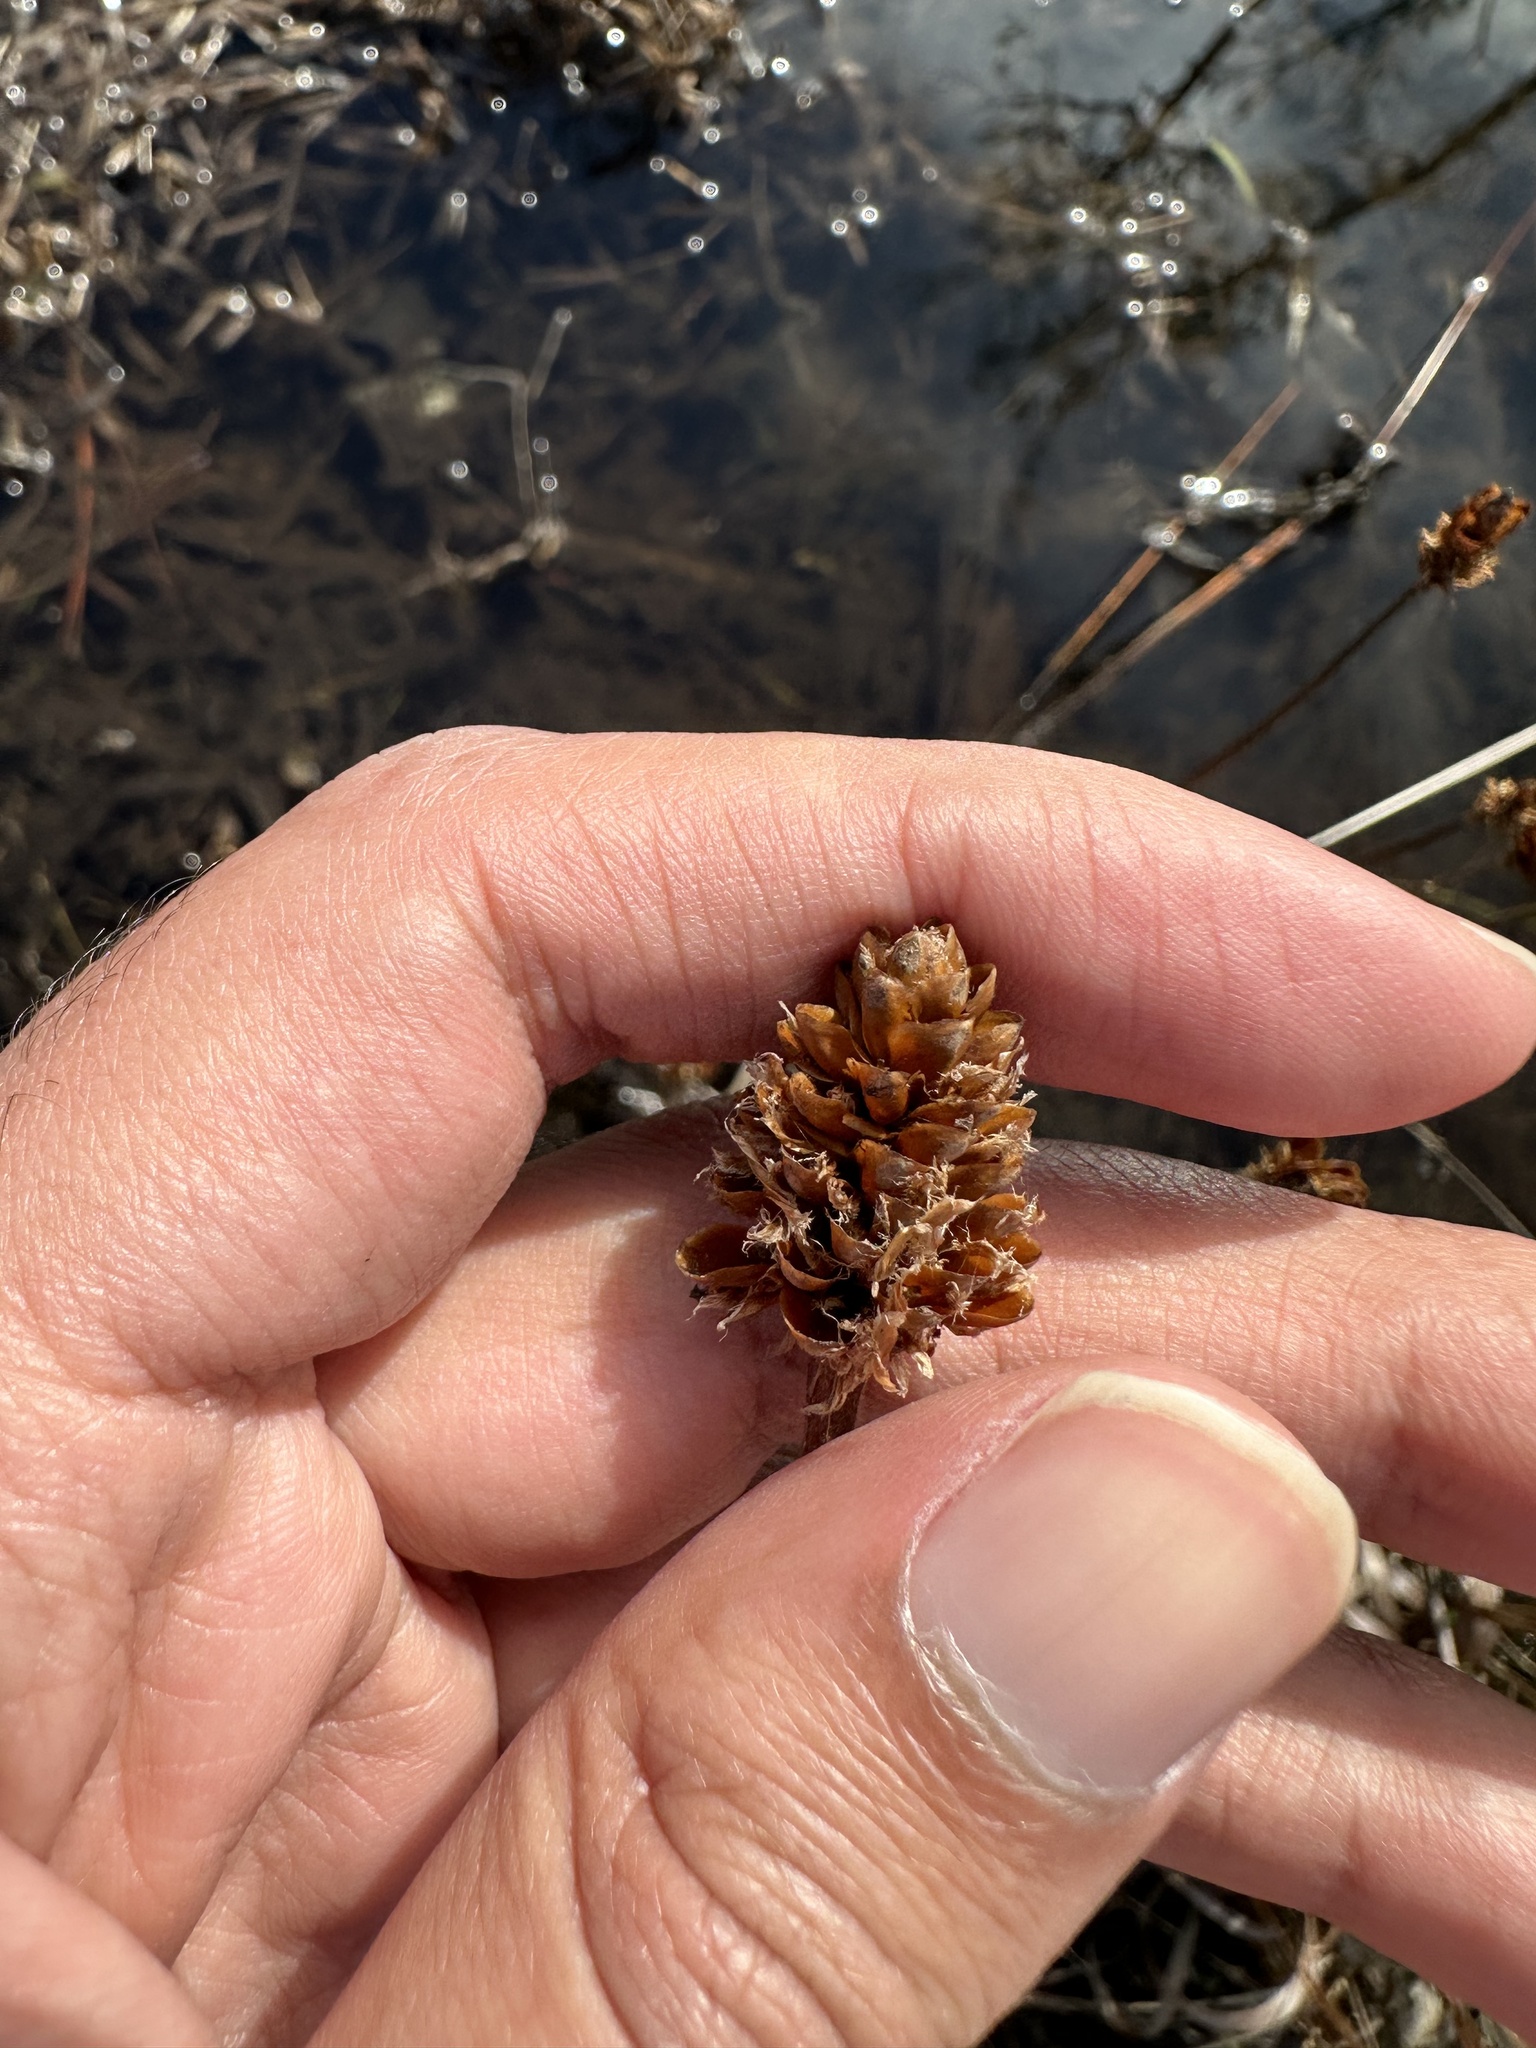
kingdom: Plantae
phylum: Tracheophyta
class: Liliopsida
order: Poales
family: Xyridaceae
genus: Xyris
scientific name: Xyris fimbriata
